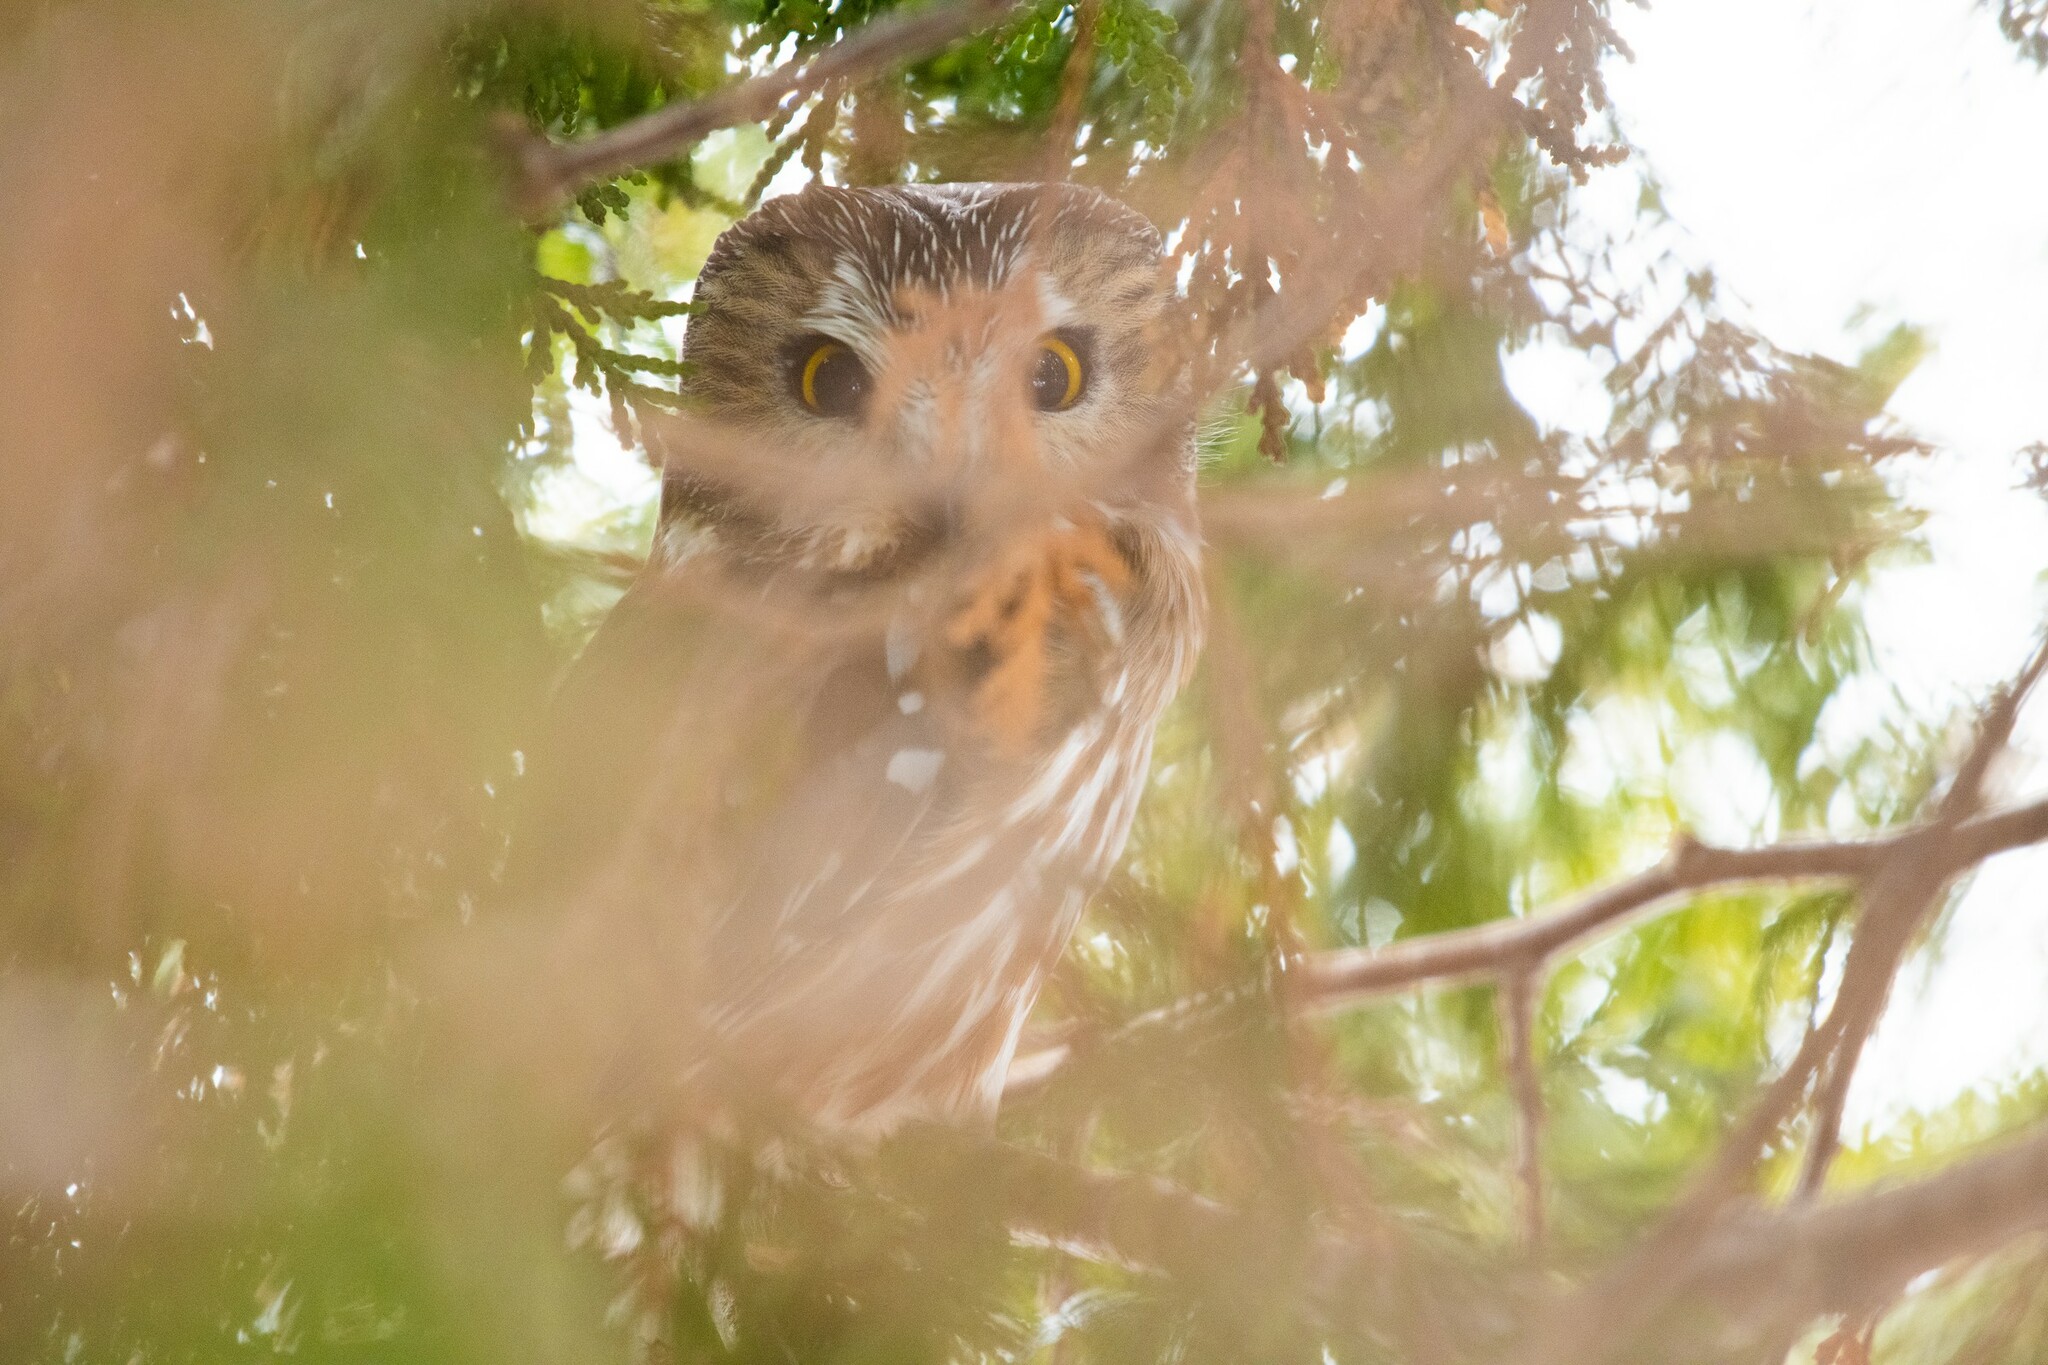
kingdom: Animalia
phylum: Chordata
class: Aves
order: Strigiformes
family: Strigidae
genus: Aegolius
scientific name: Aegolius acadicus
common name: Northern saw-whet owl
